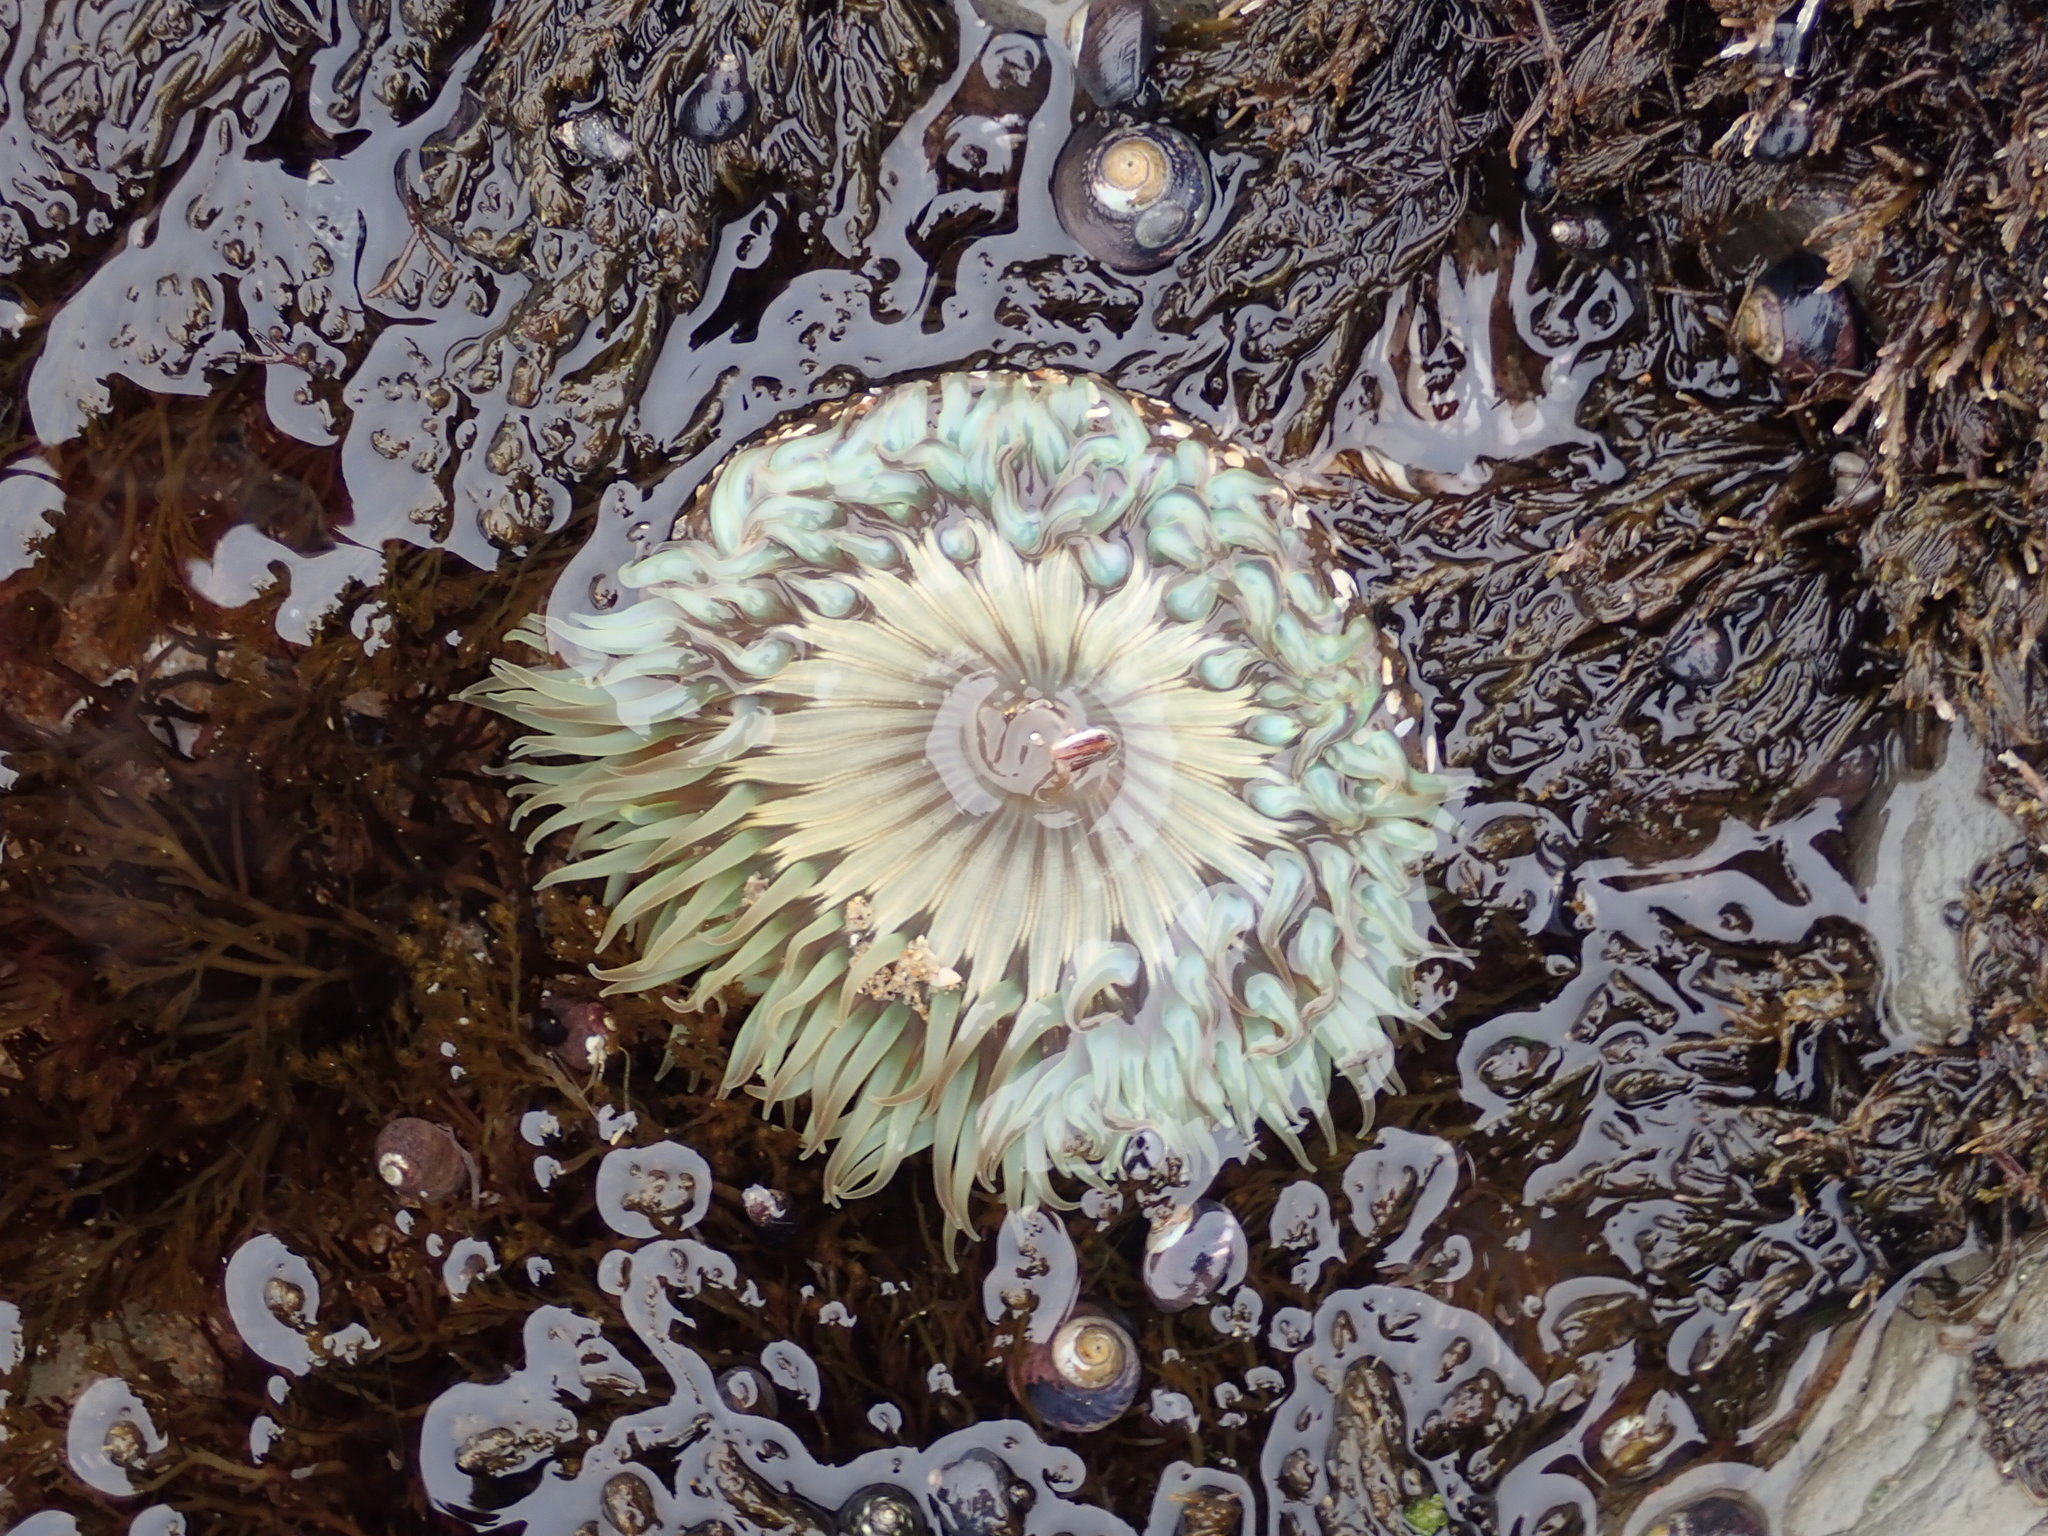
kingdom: Animalia
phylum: Cnidaria
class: Anthozoa
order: Actiniaria
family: Actiniidae
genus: Anthopleura
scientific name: Anthopleura sola
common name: Sun anemone
